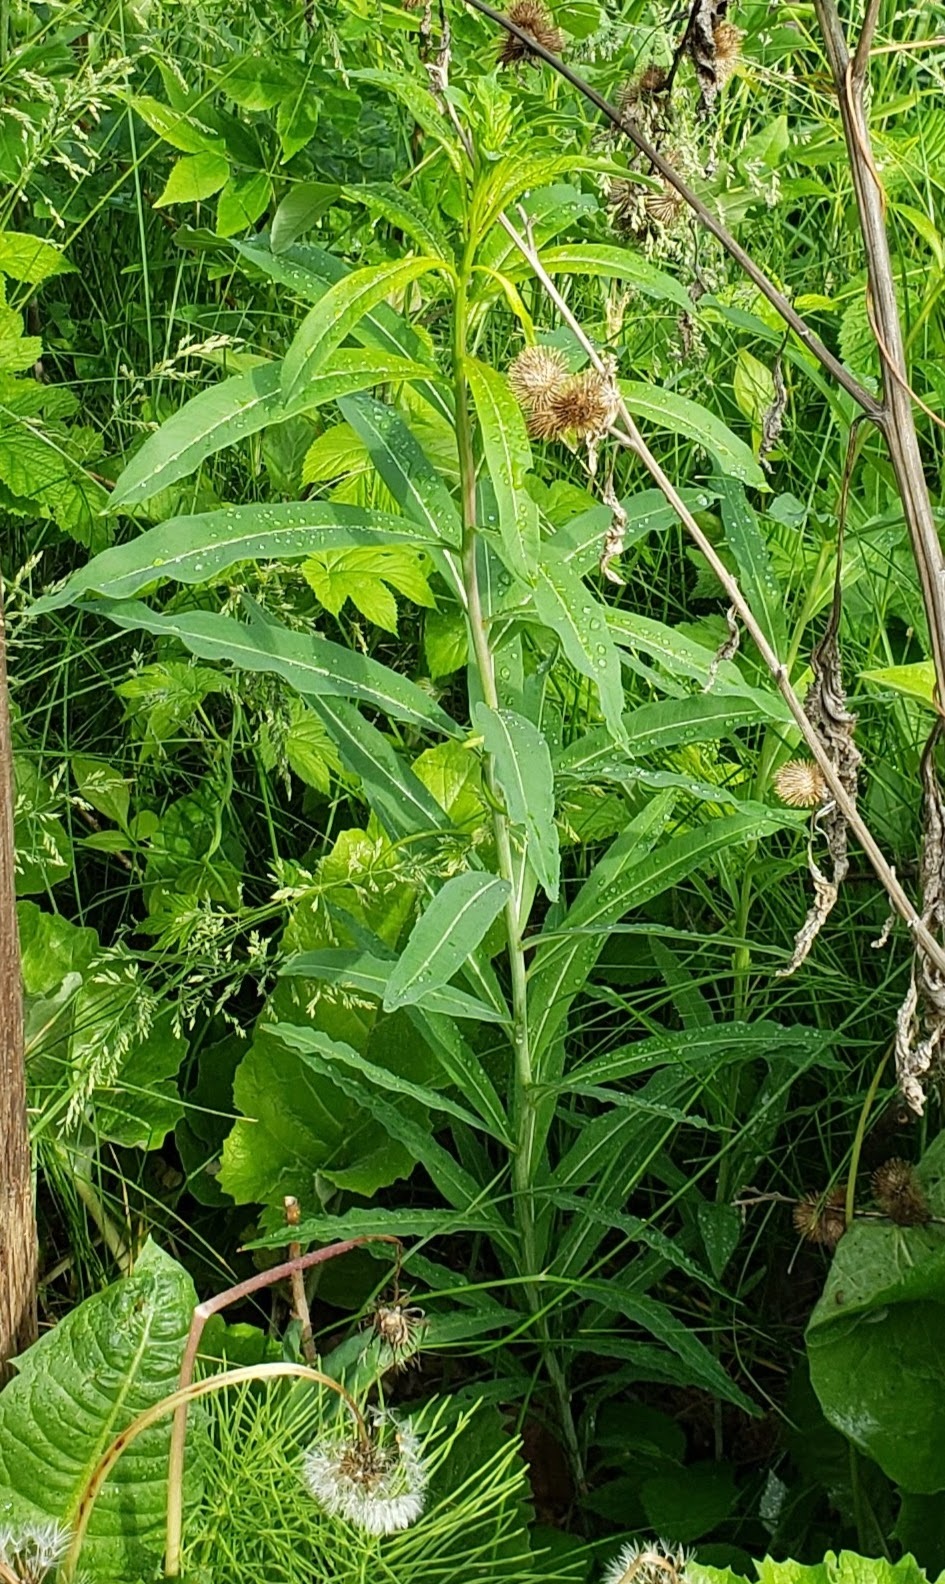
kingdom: Plantae
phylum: Tracheophyta
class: Magnoliopsida
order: Myrtales
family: Onagraceae
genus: Chamaenerion
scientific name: Chamaenerion angustifolium
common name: Fireweed
